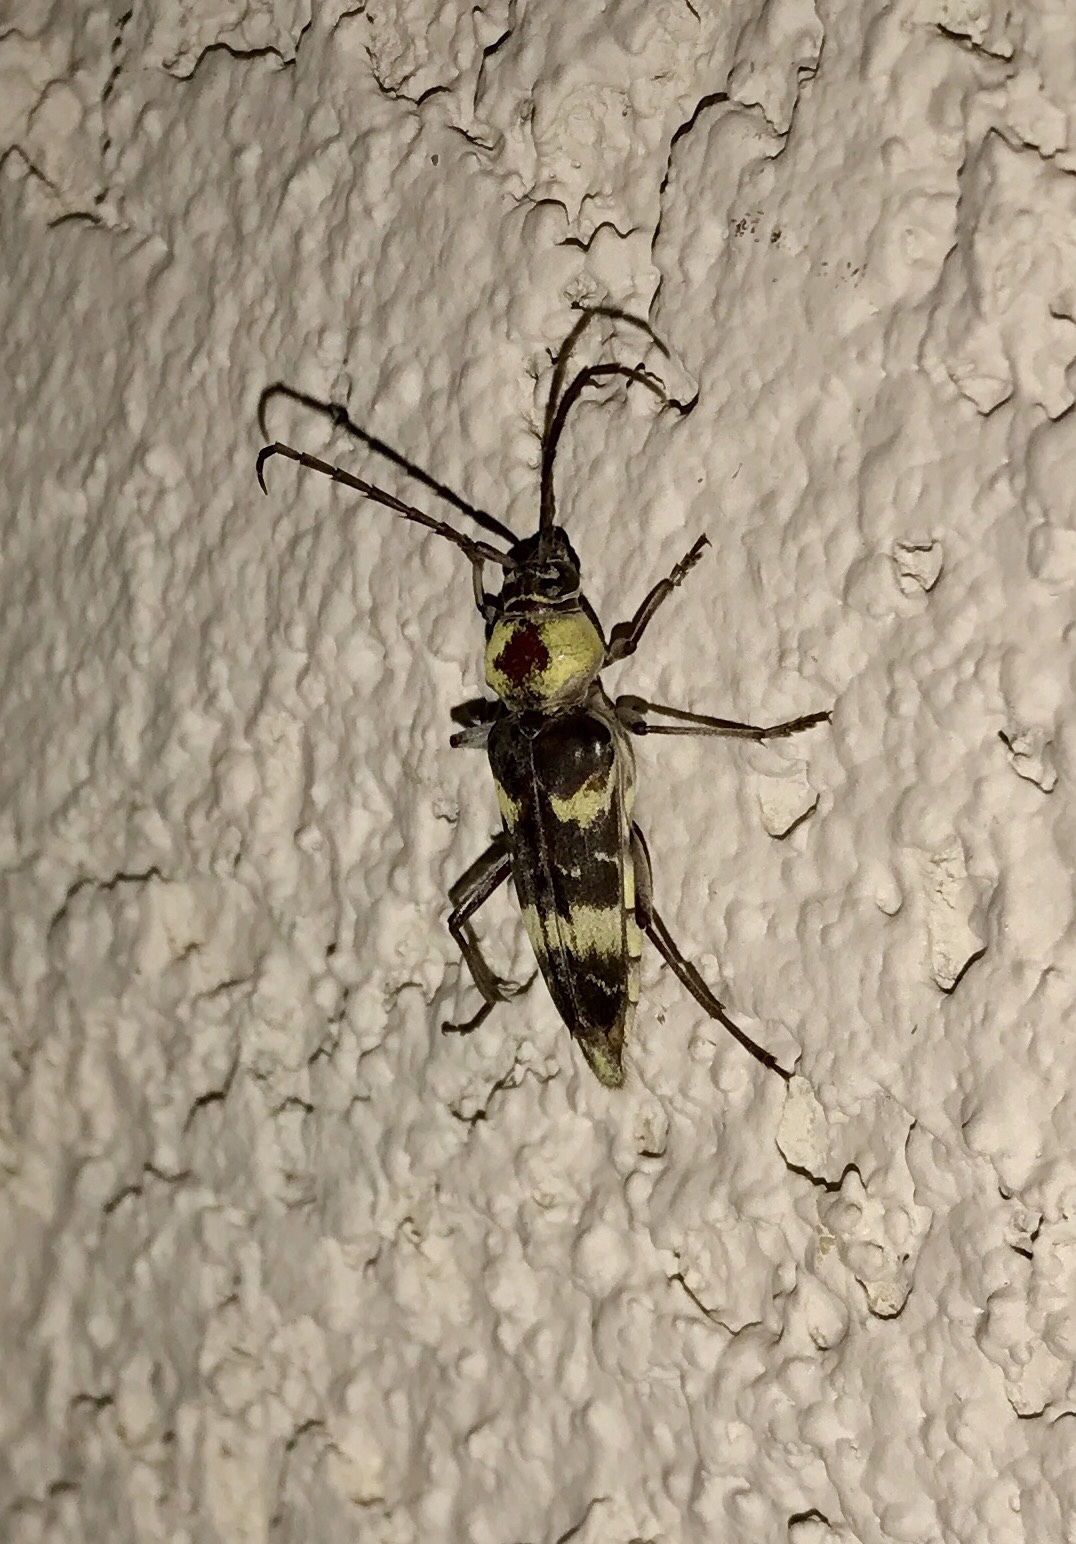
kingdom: Animalia
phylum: Arthropoda
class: Insecta
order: Coleoptera
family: Cerambycidae
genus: Megacyllene
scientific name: Megacyllene antennata
